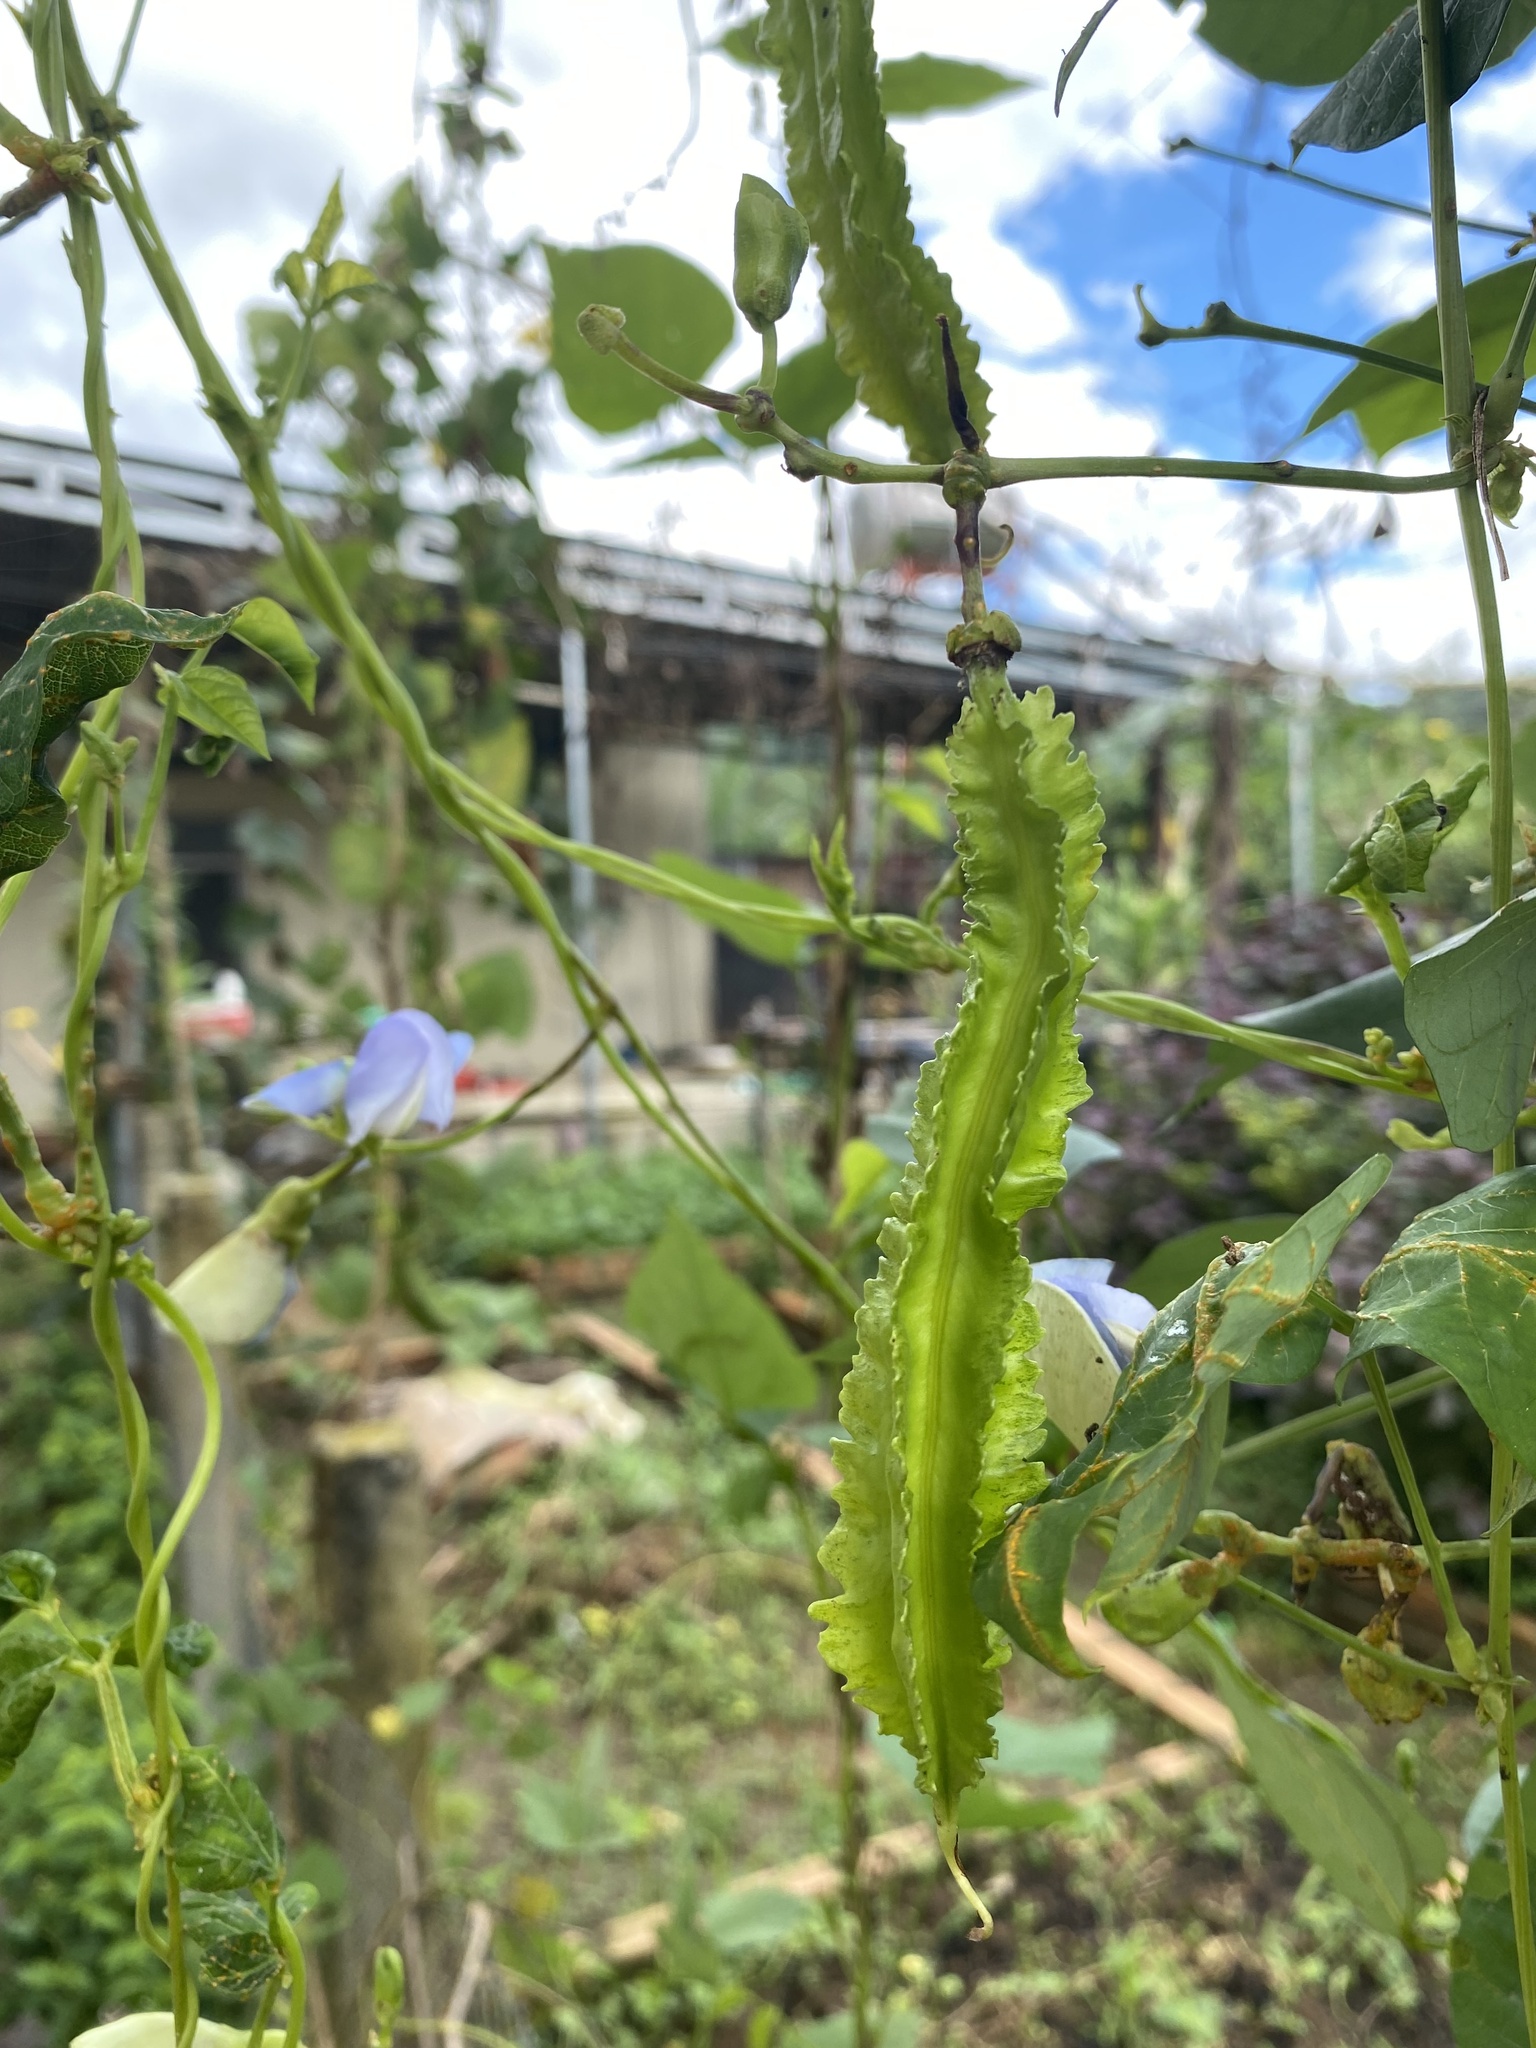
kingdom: Plantae
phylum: Tracheophyta
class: Magnoliopsida
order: Fabales
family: Fabaceae
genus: Psophocarpus
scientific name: Psophocarpus tetragonolobus
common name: Goa-bean
